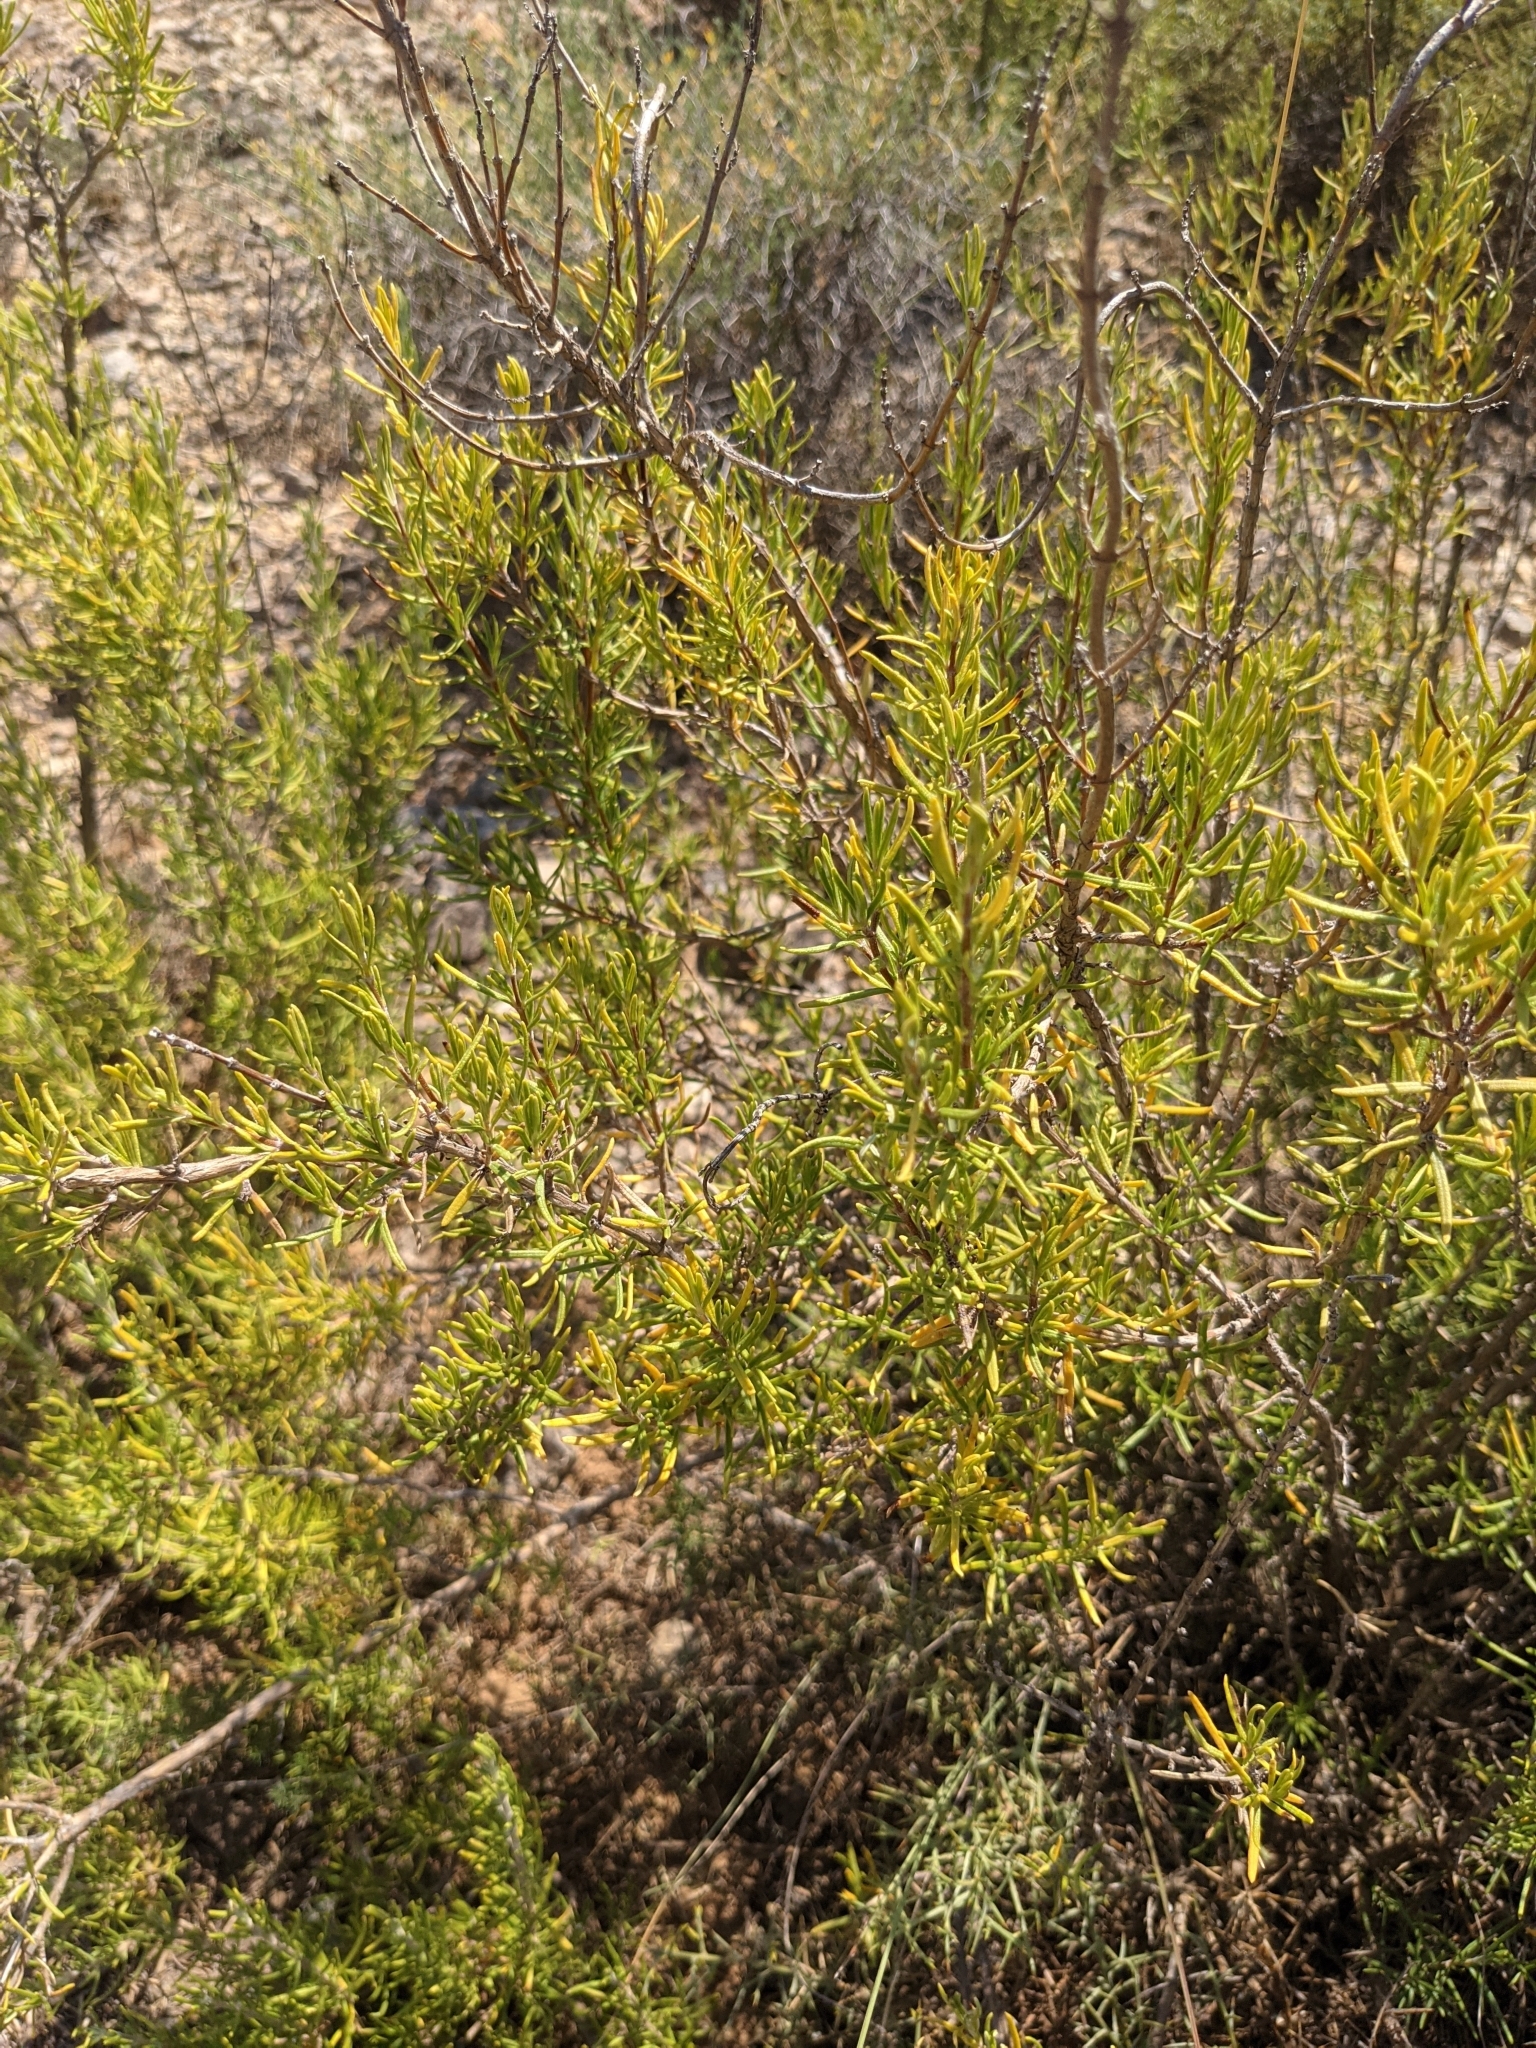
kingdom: Plantae
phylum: Tracheophyta
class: Magnoliopsida
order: Lamiales
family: Lamiaceae
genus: Salvia
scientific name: Salvia rosmarinus
